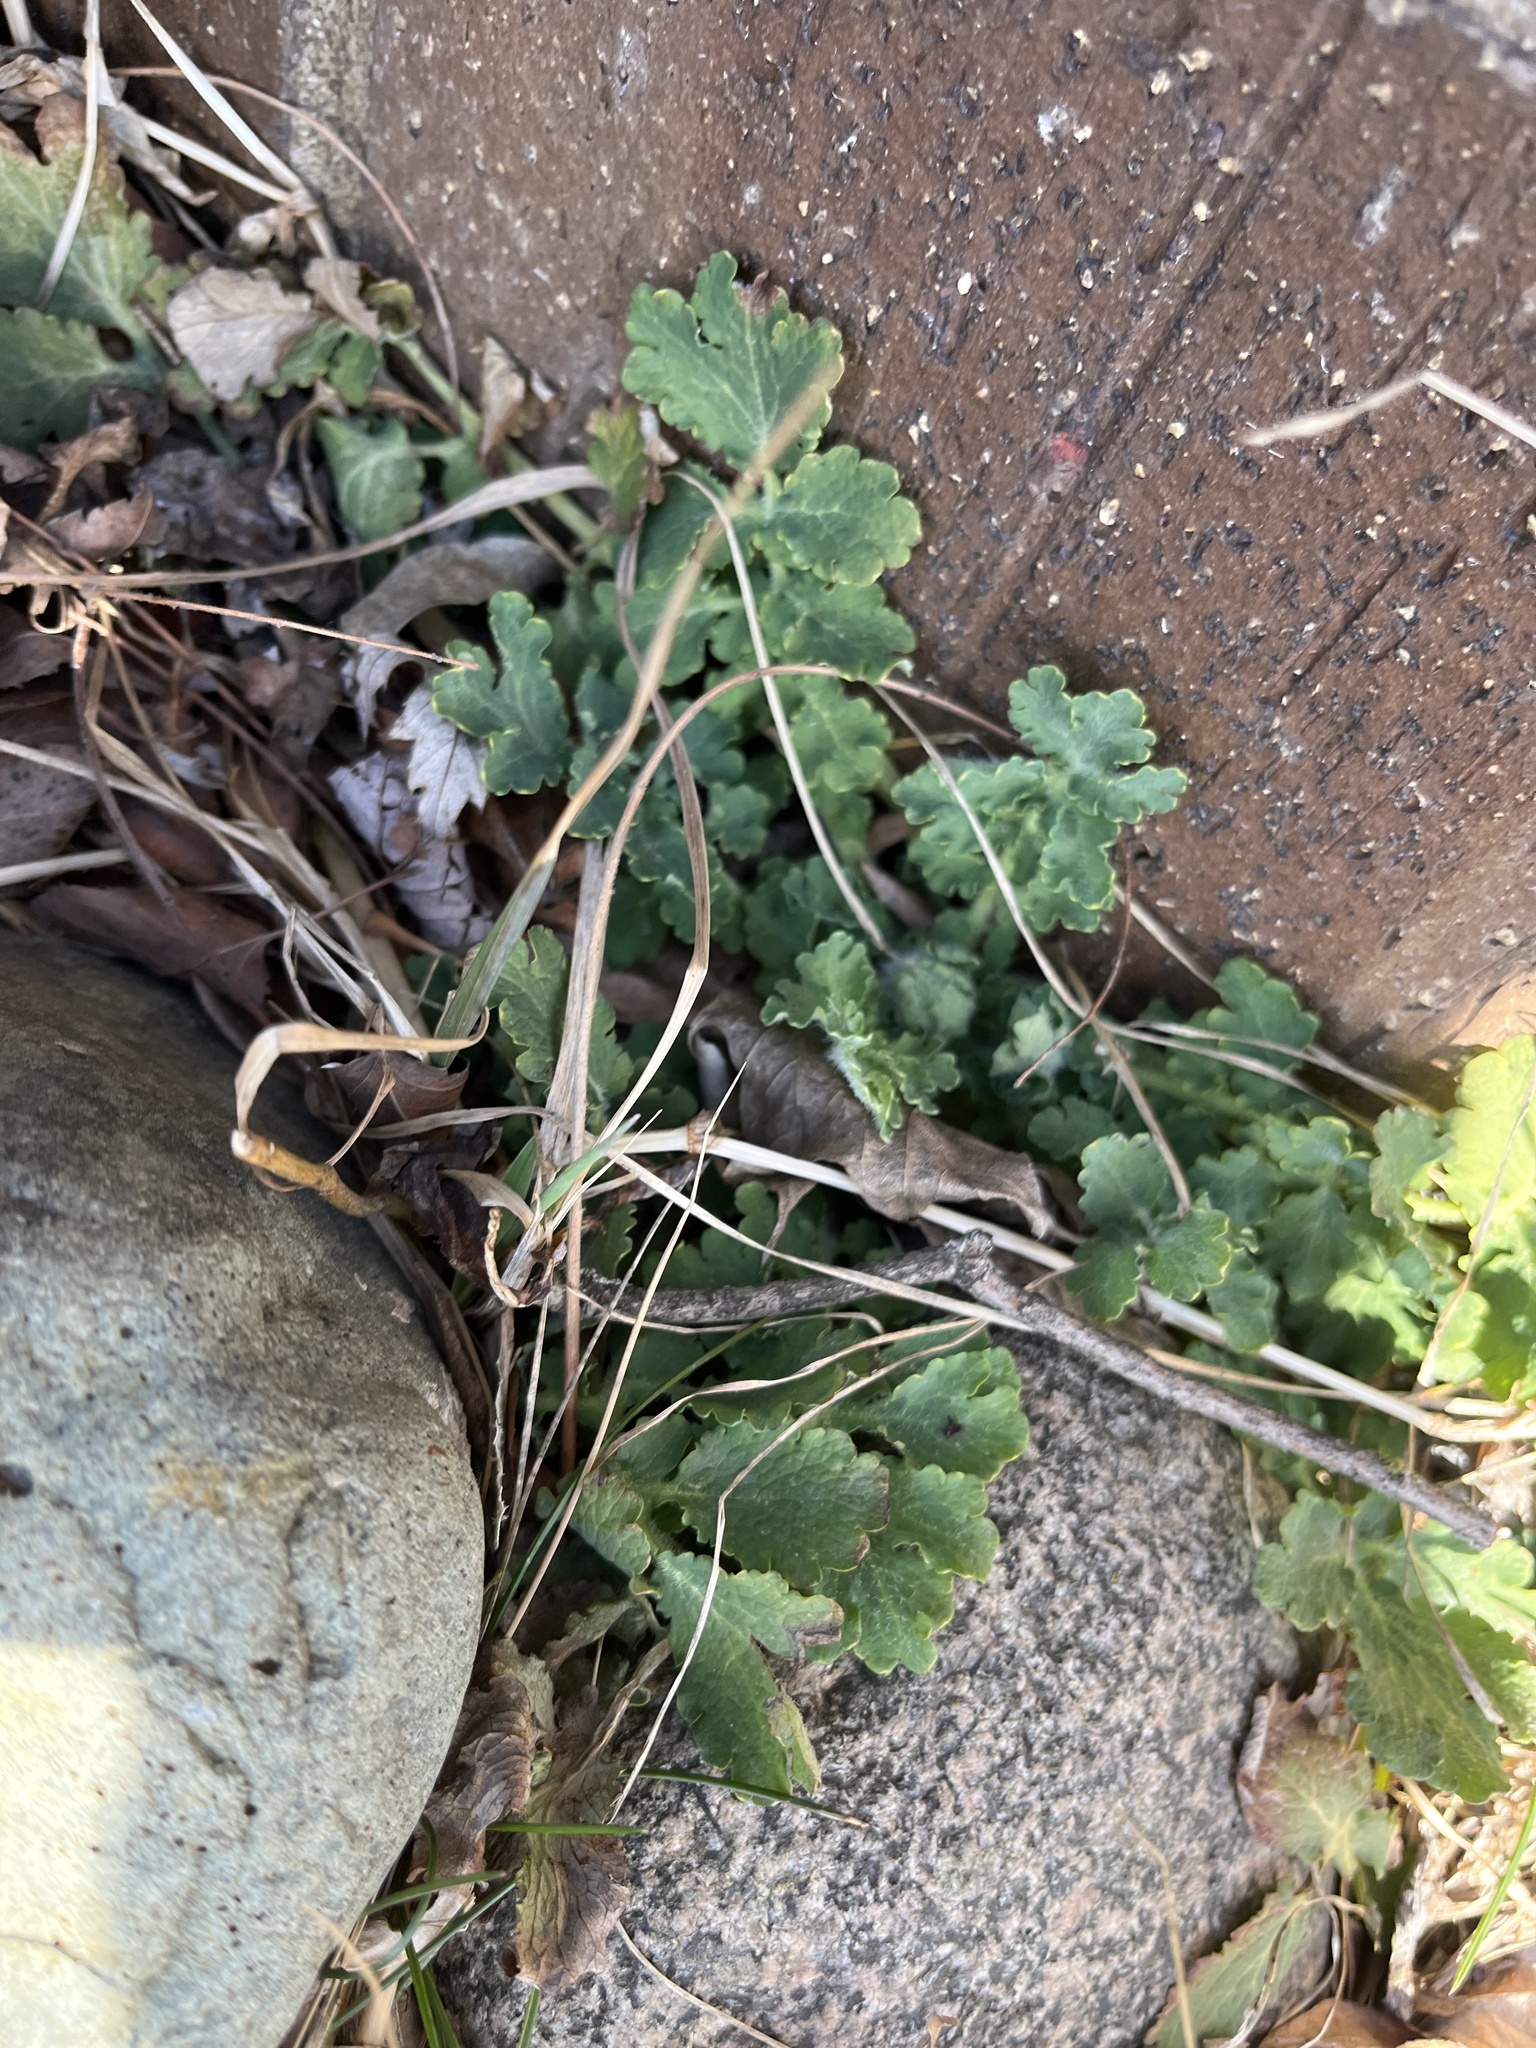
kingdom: Plantae
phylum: Tracheophyta
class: Magnoliopsida
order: Ranunculales
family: Papaveraceae
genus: Chelidonium
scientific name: Chelidonium majus
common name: Greater celandine
